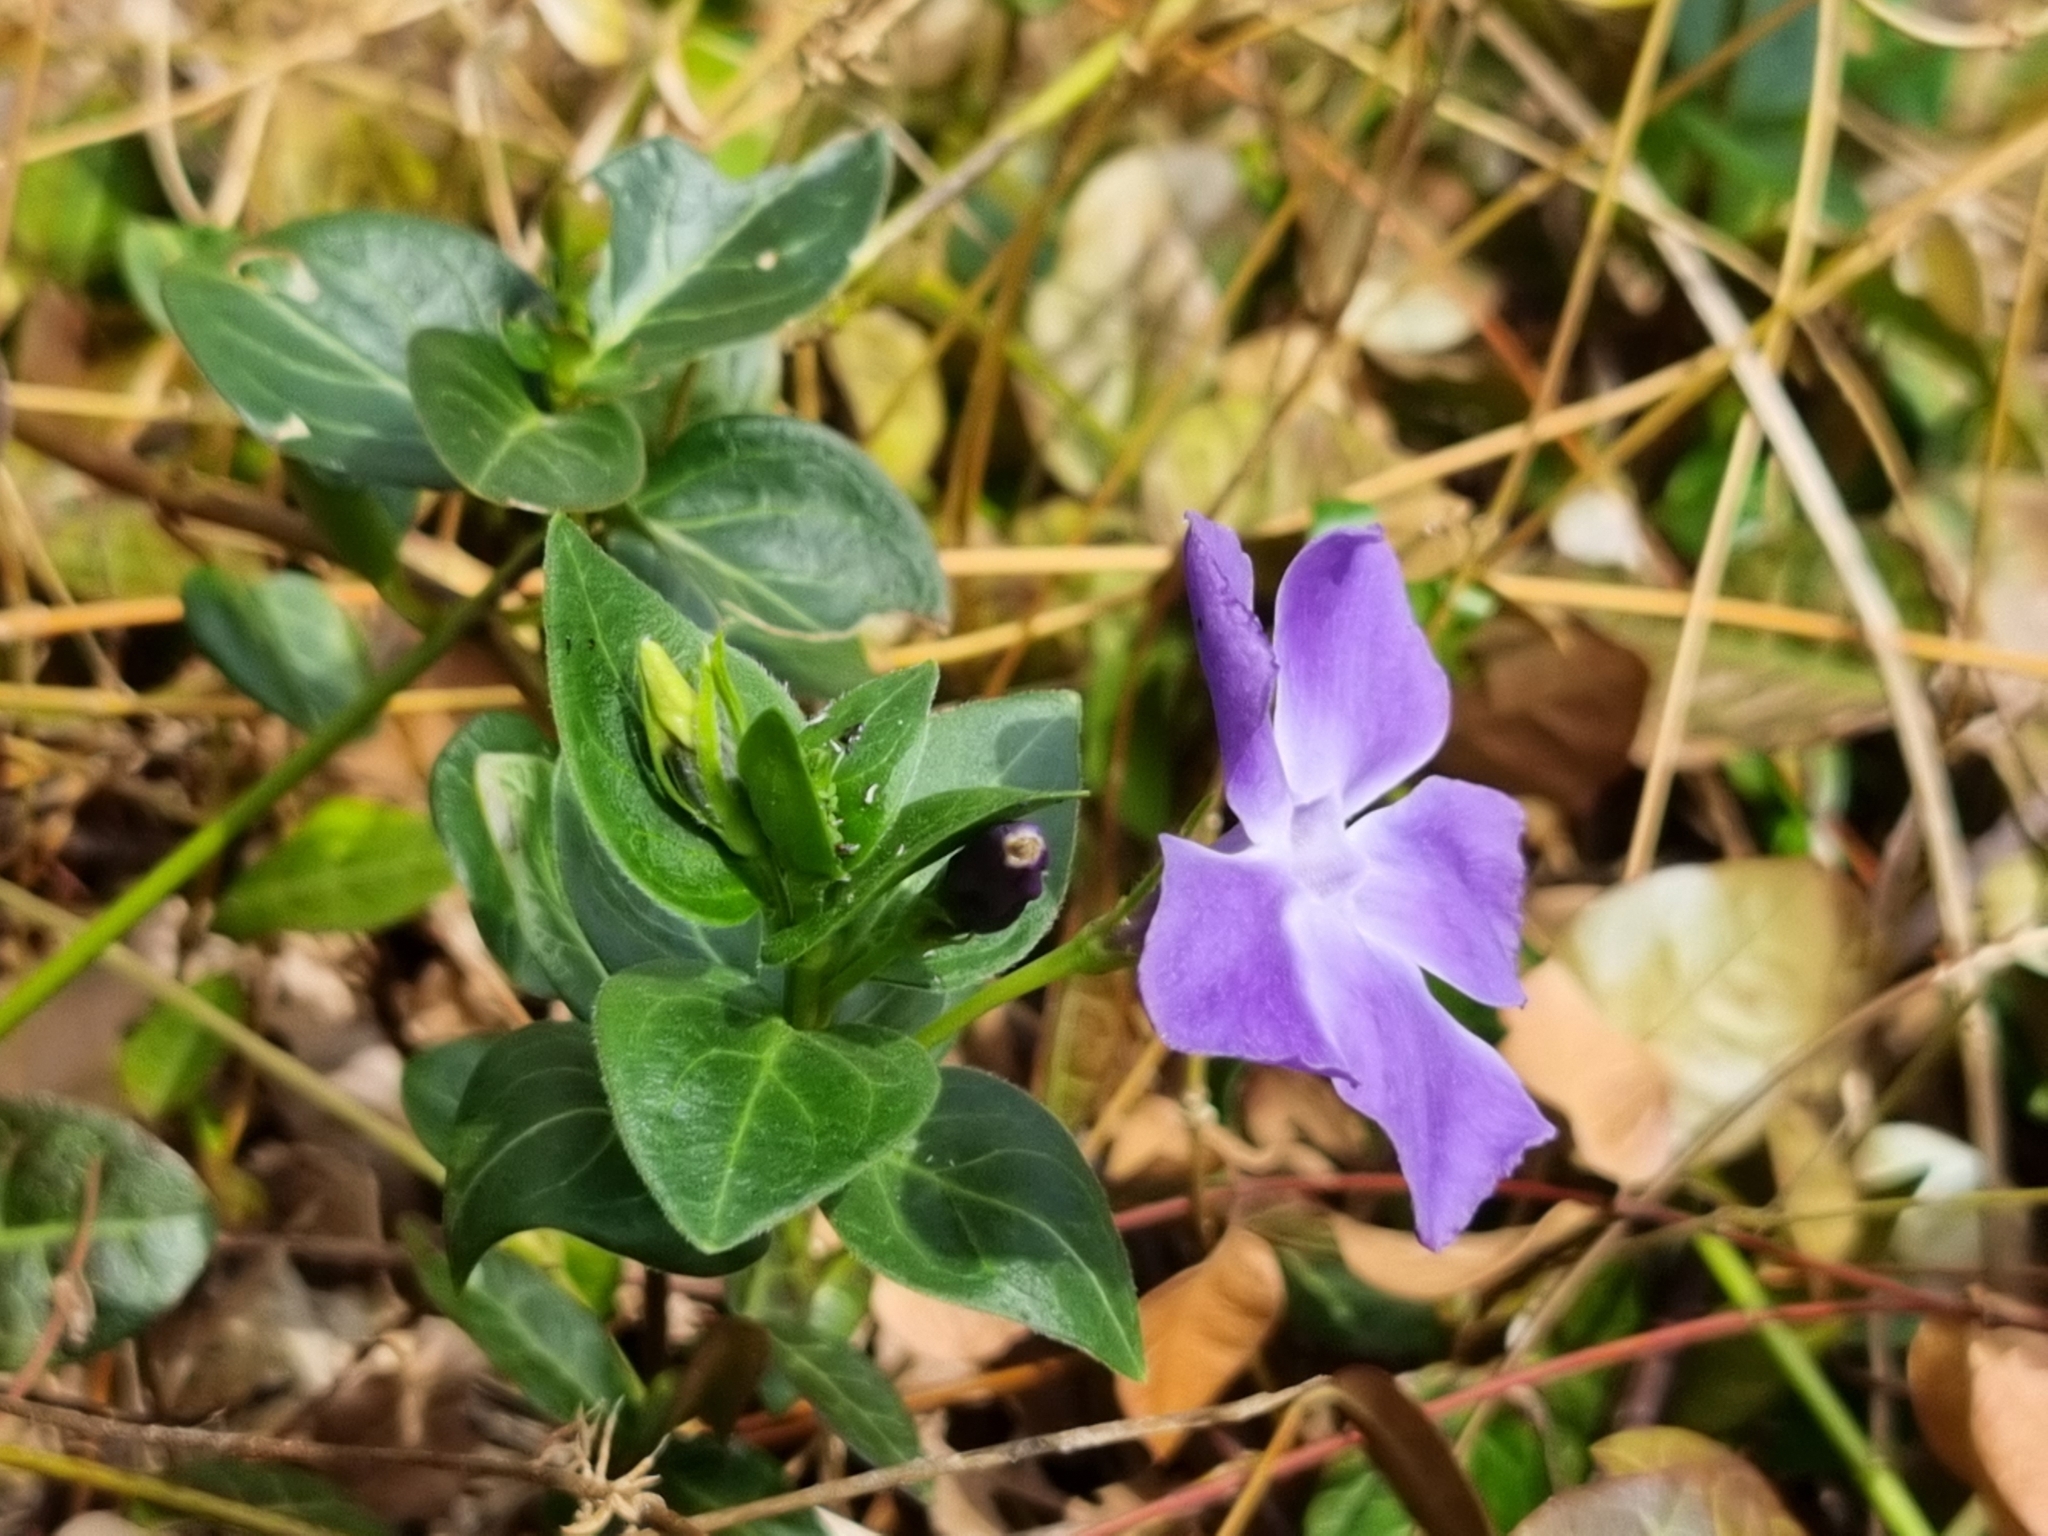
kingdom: Plantae
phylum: Tracheophyta
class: Magnoliopsida
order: Gentianales
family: Apocynaceae
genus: Vinca
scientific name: Vinca major
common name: Greater periwinkle
